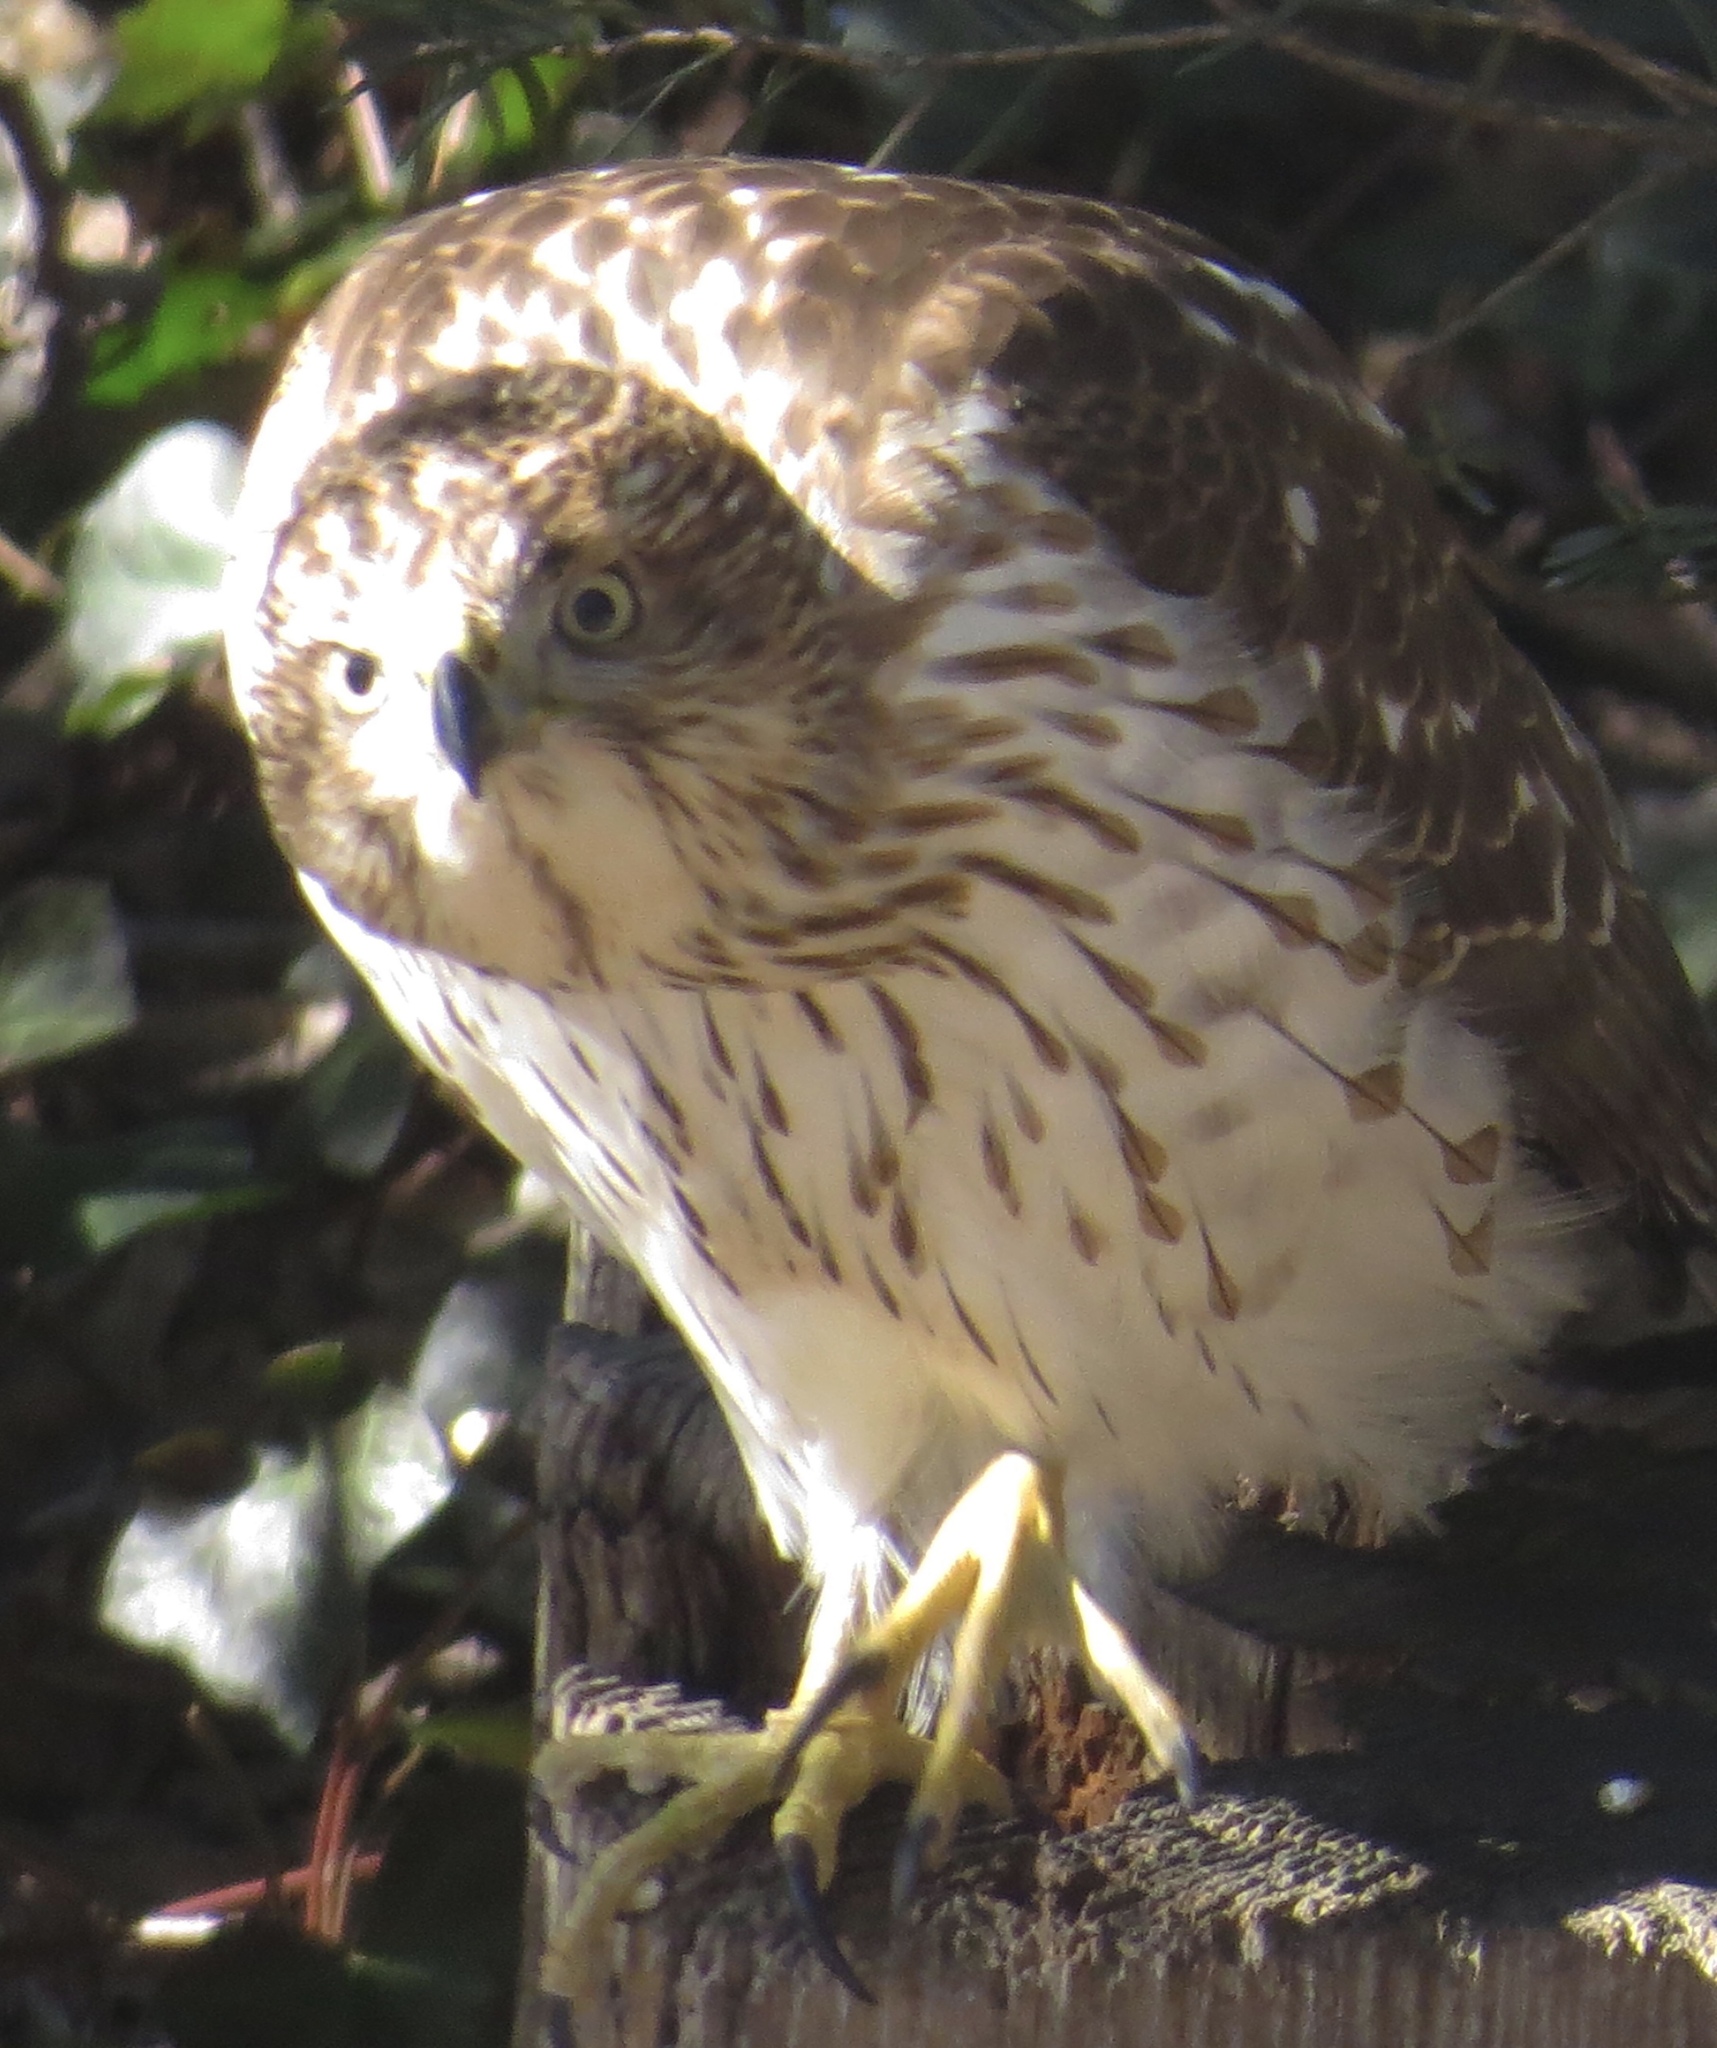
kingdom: Animalia
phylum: Chordata
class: Aves
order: Accipitriformes
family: Accipitridae
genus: Accipiter
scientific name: Accipiter cooperii
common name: Cooper's hawk
